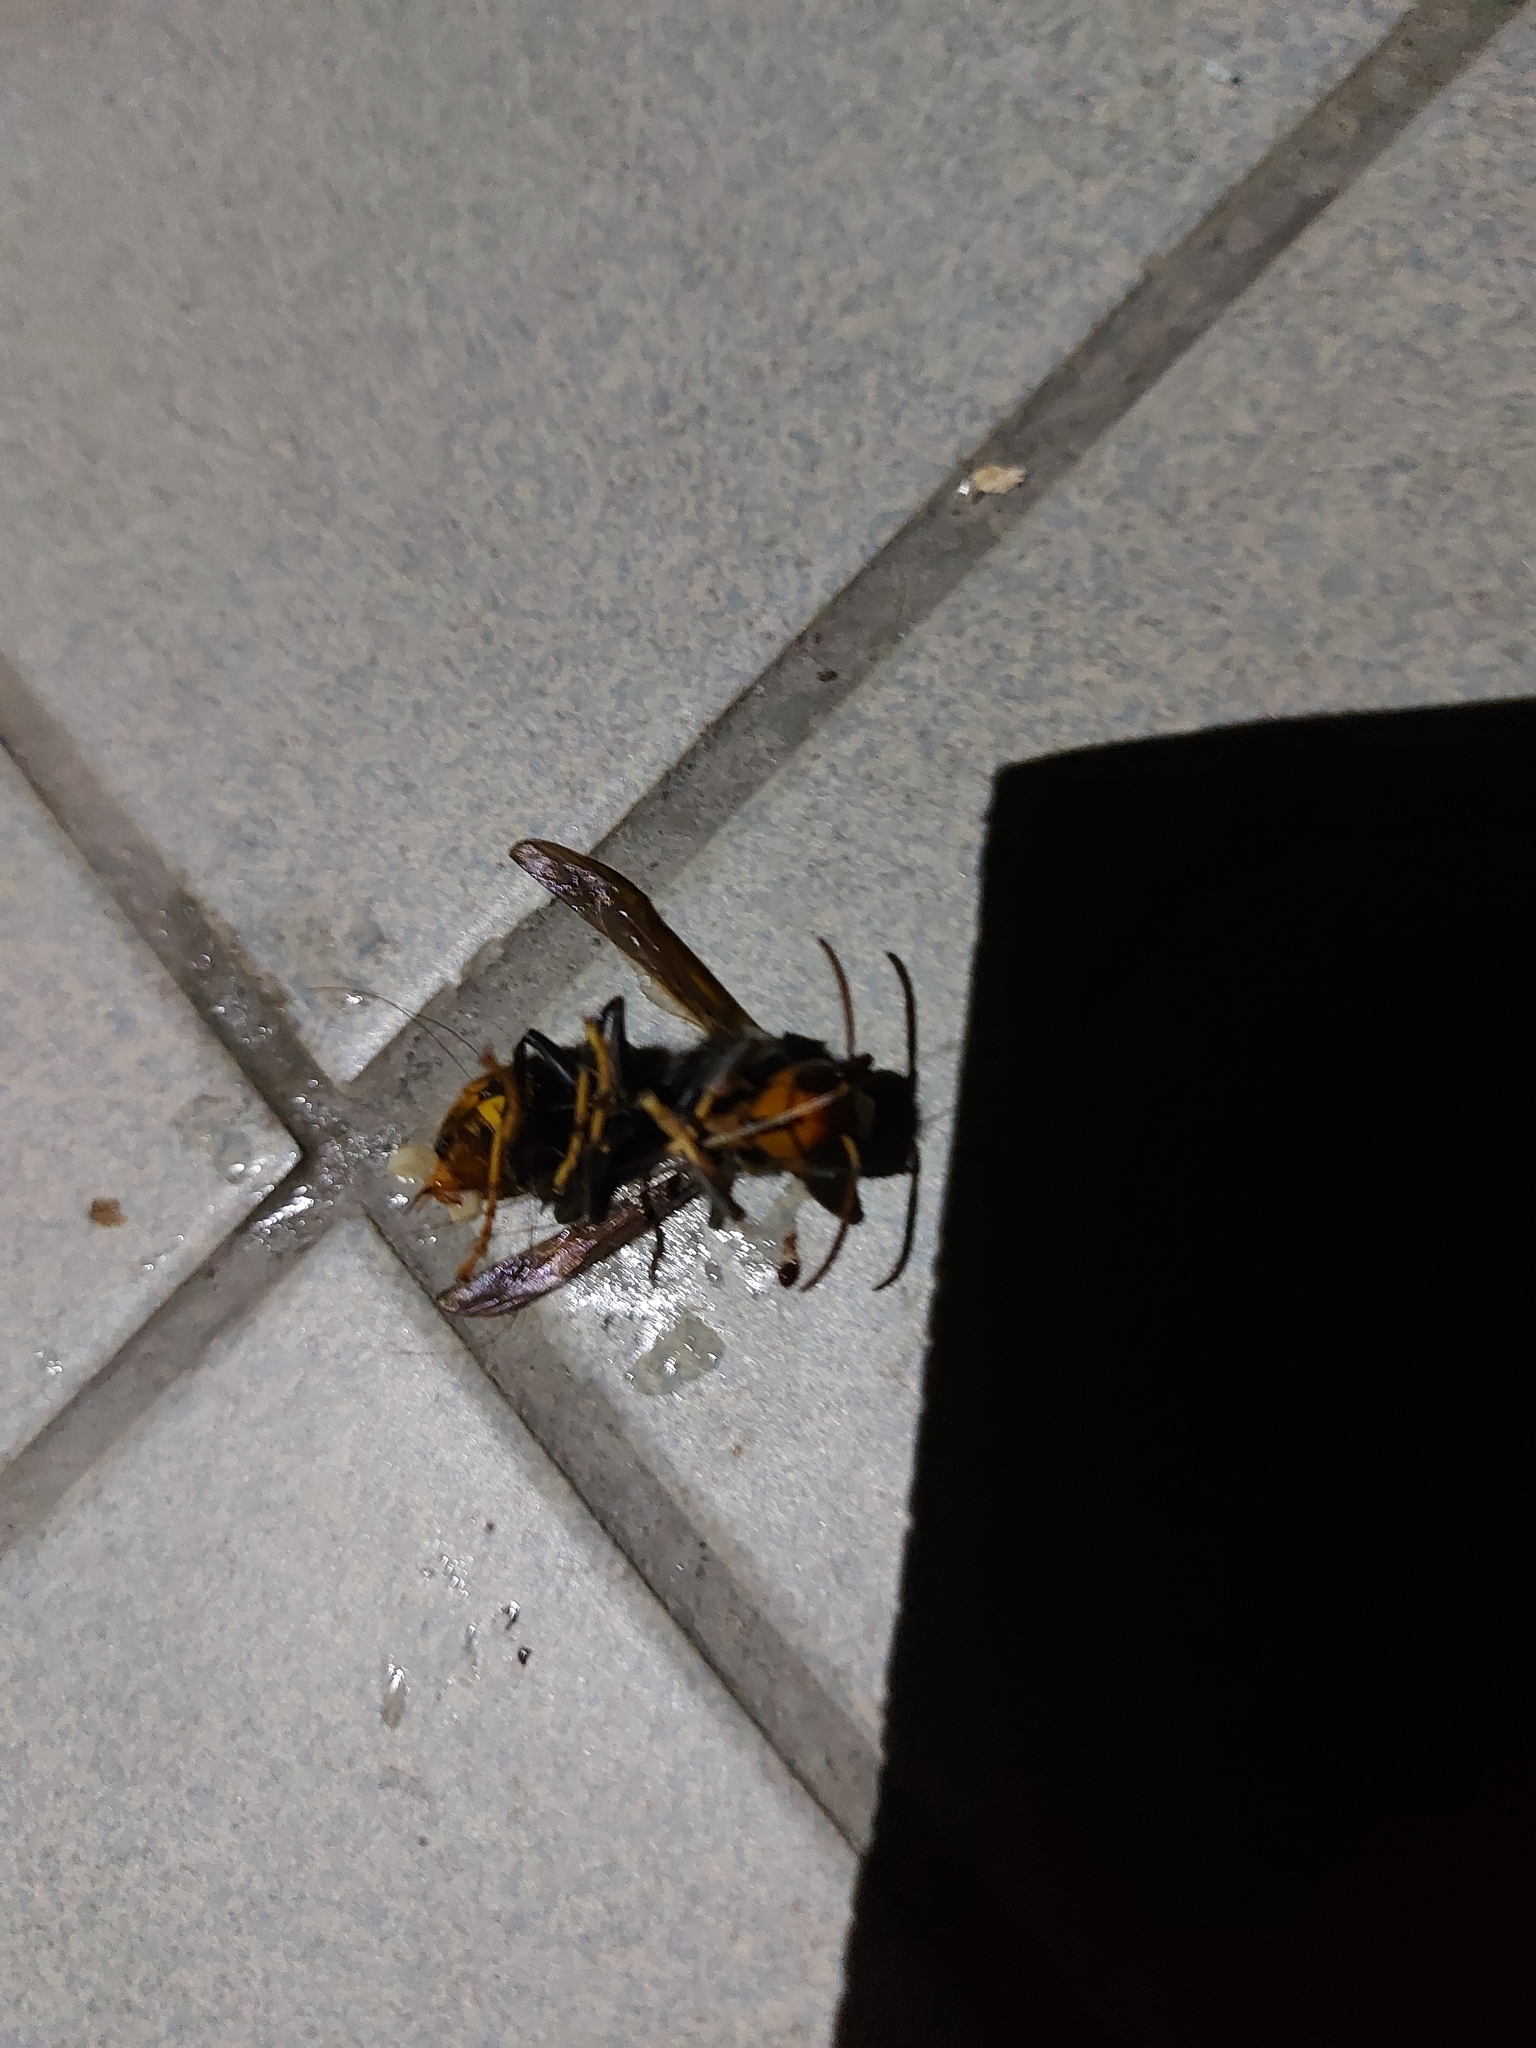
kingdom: Animalia
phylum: Arthropoda
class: Insecta
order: Hymenoptera
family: Vespidae
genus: Vespa
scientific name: Vespa velutina
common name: Asian hornet
